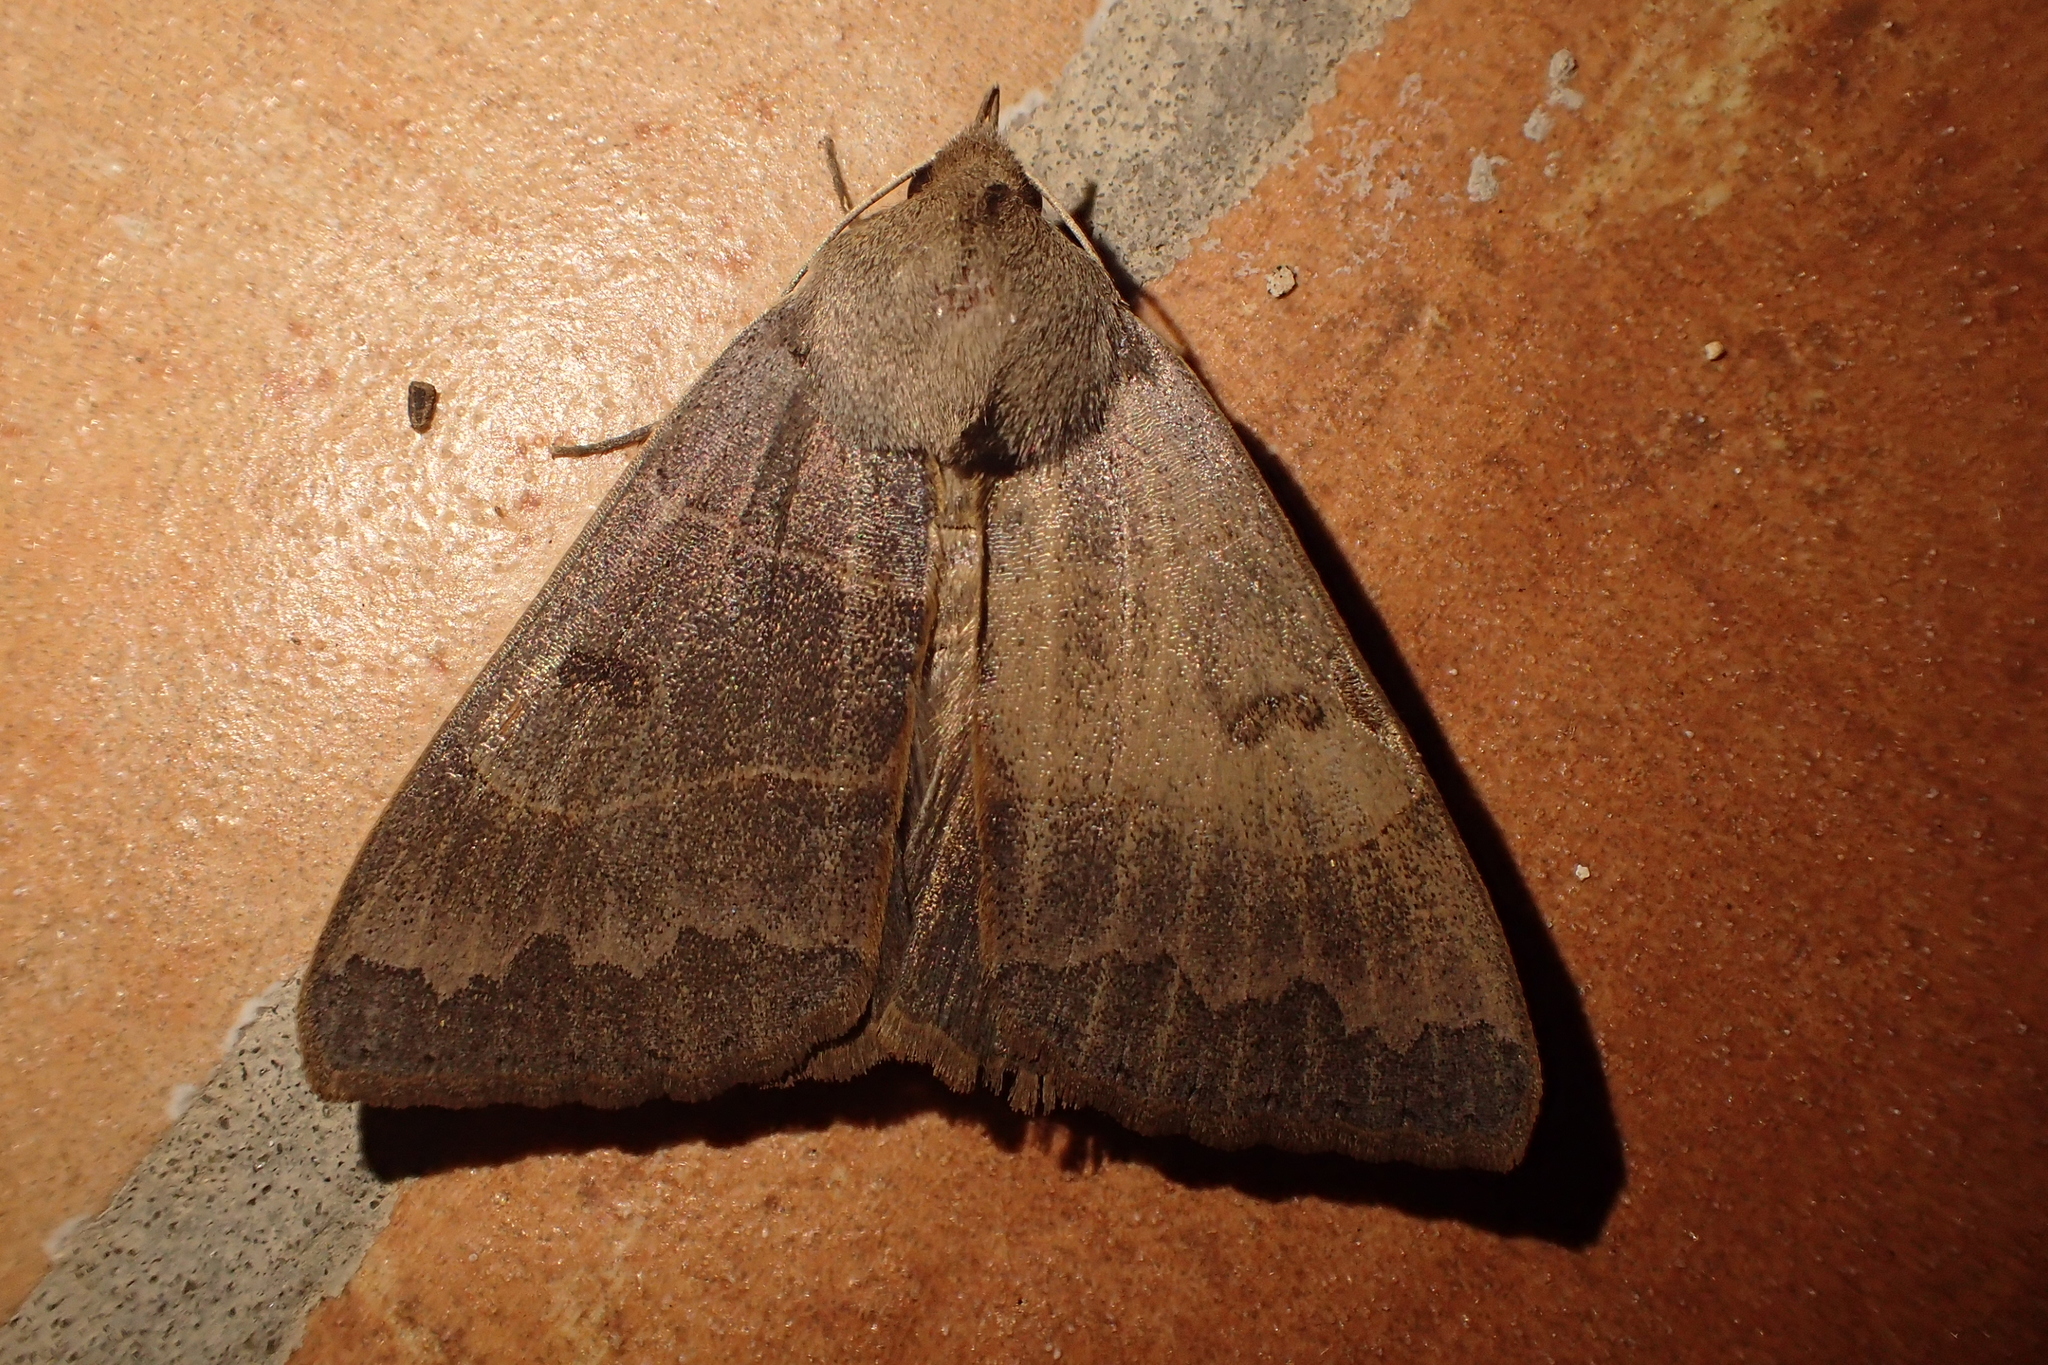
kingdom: Animalia
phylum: Arthropoda
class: Insecta
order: Lepidoptera
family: Erebidae
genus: Minucia
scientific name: Minucia lunaris
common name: Lunar double-stripe
